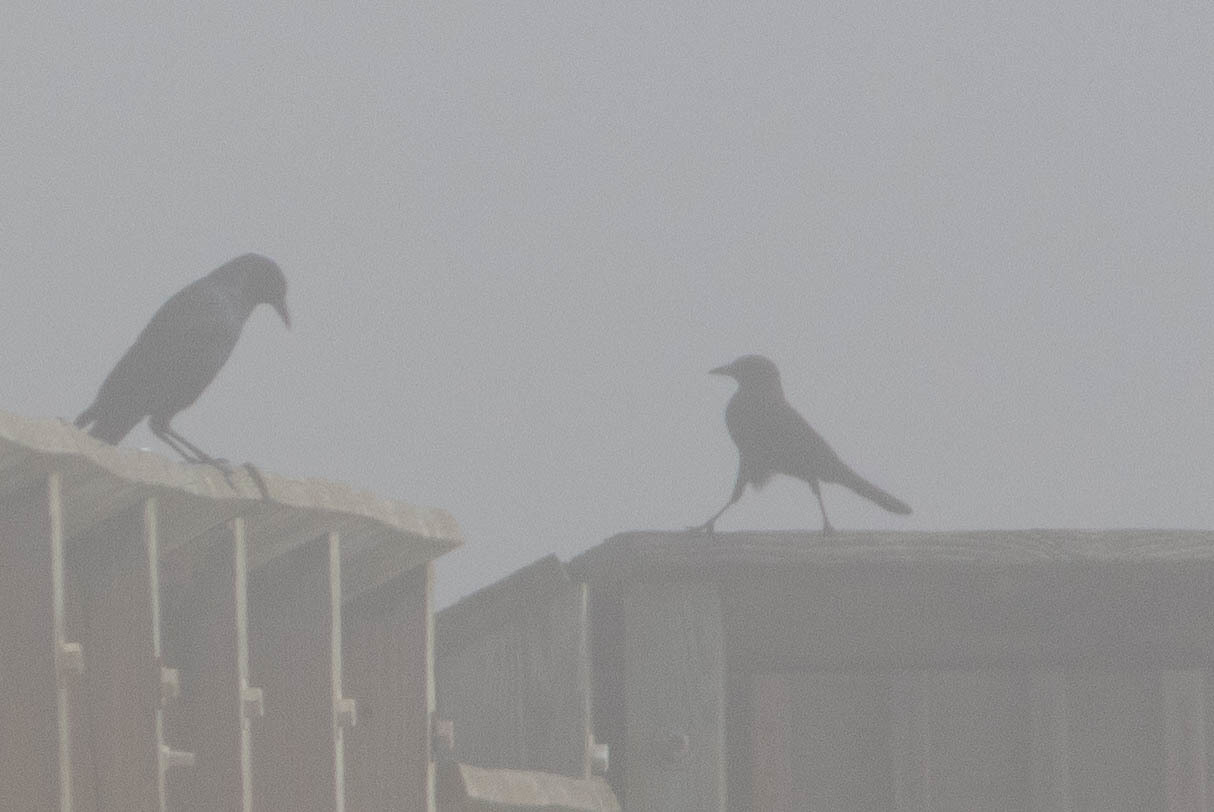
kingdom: Animalia
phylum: Chordata
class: Aves
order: Passeriformes
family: Icteridae
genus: Quiscalus
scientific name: Quiscalus major
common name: Boat-tailed grackle
